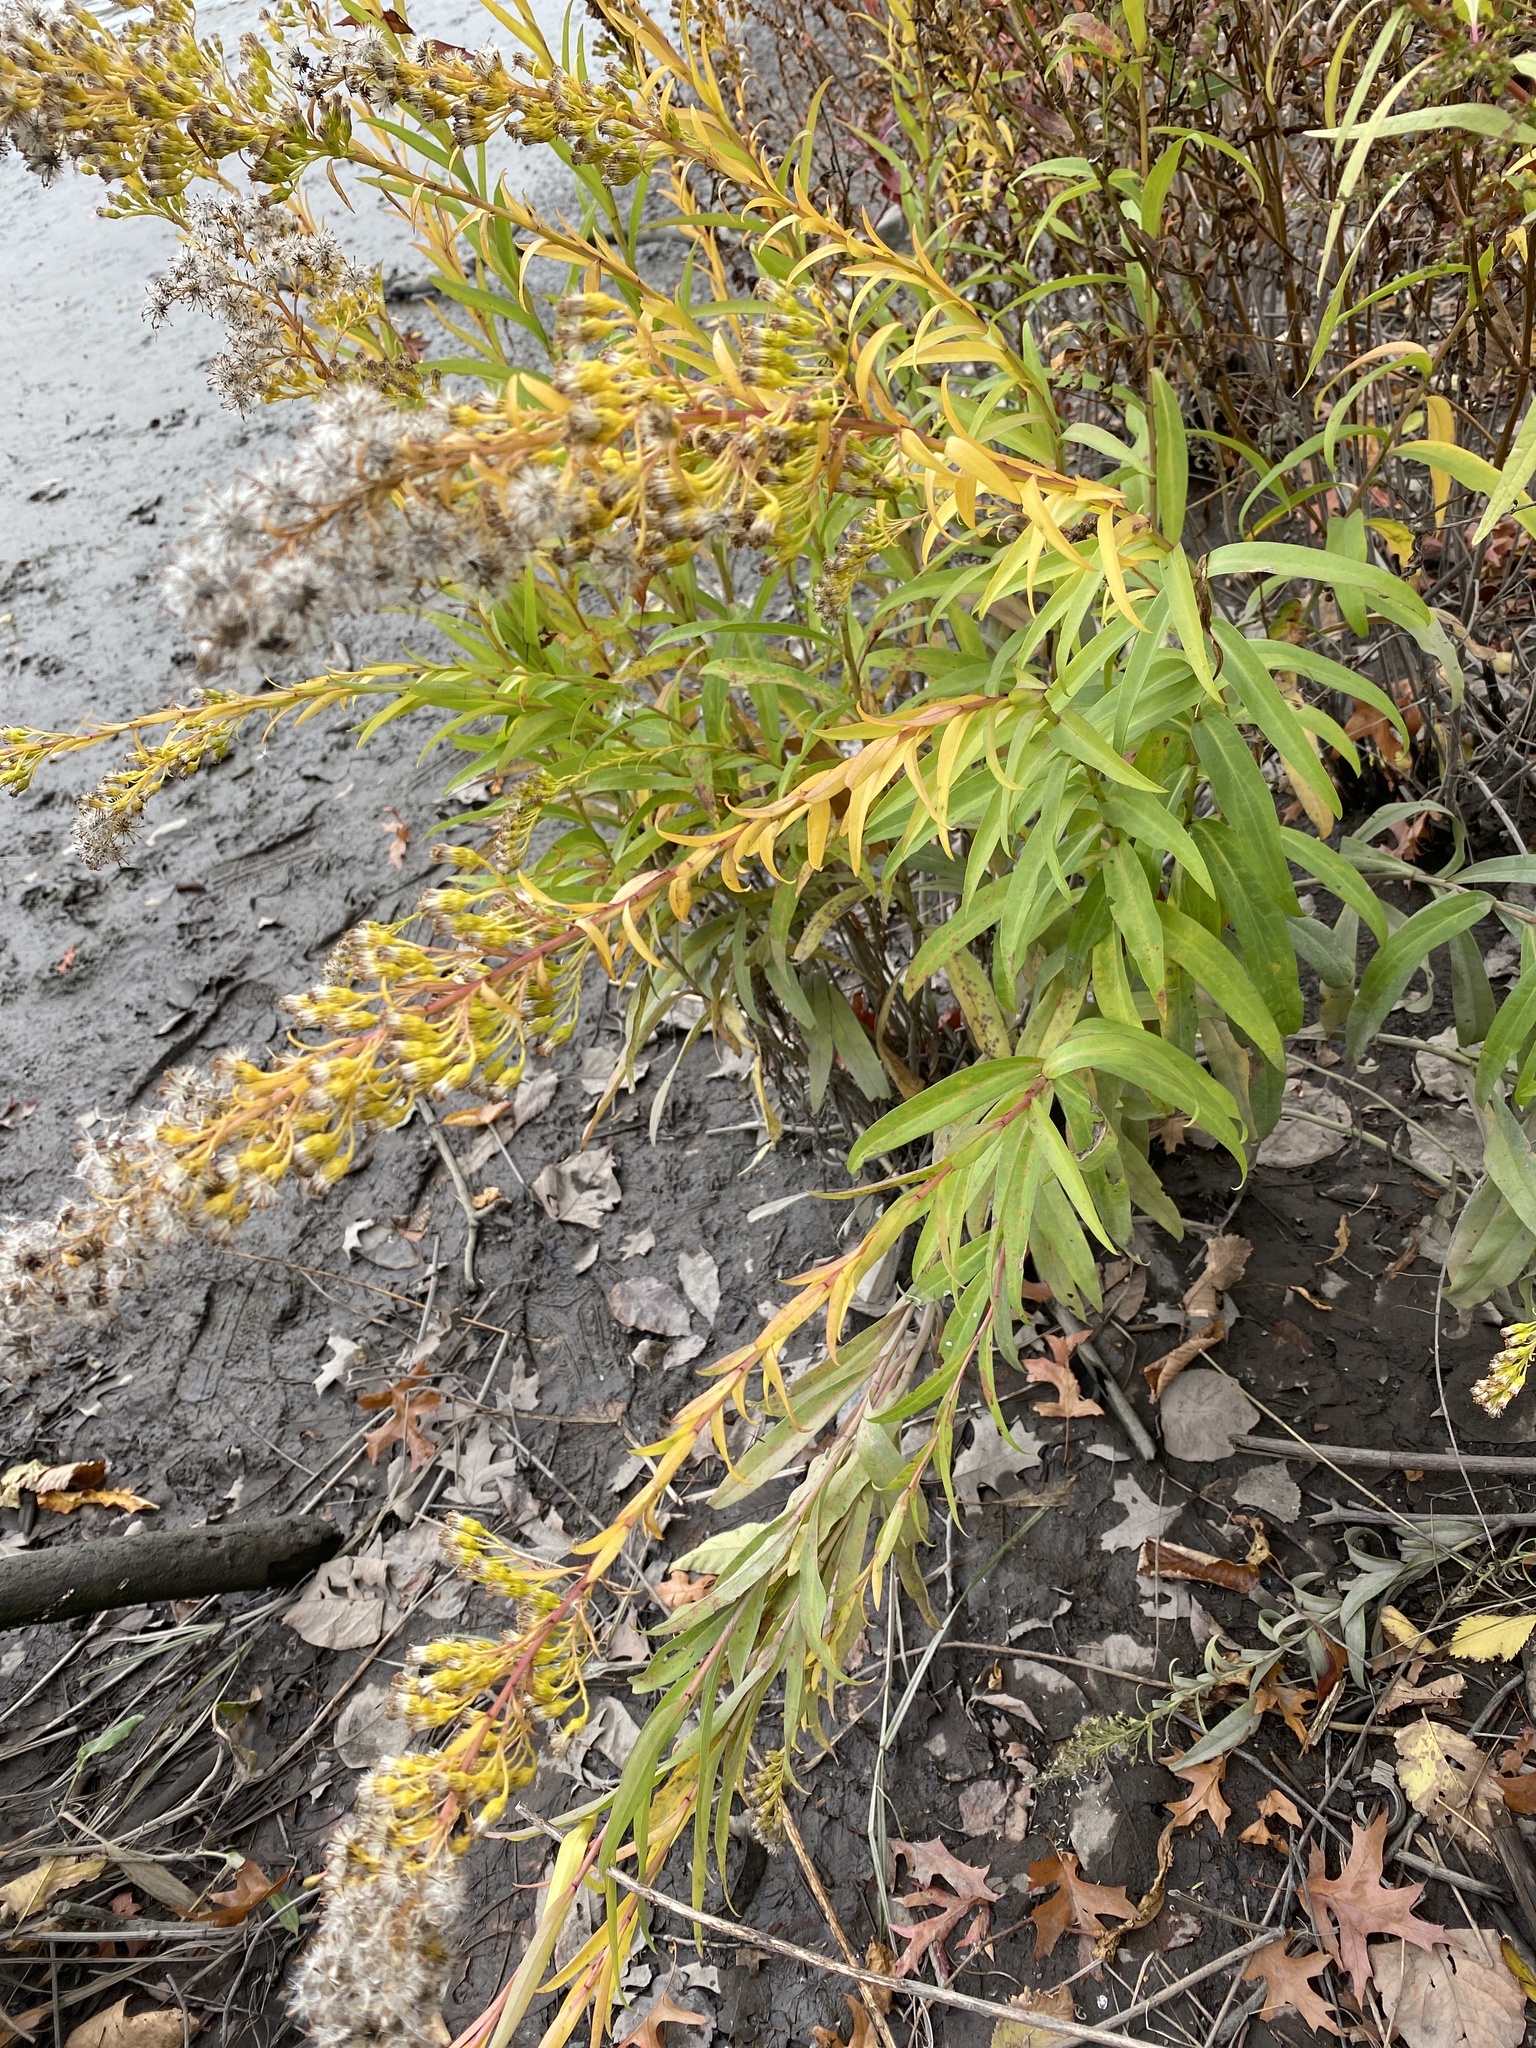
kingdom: Plantae
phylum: Tracheophyta
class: Magnoliopsida
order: Asterales
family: Asteraceae
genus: Solidago
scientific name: Solidago sempervirens
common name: Salt-marsh goldenrod
